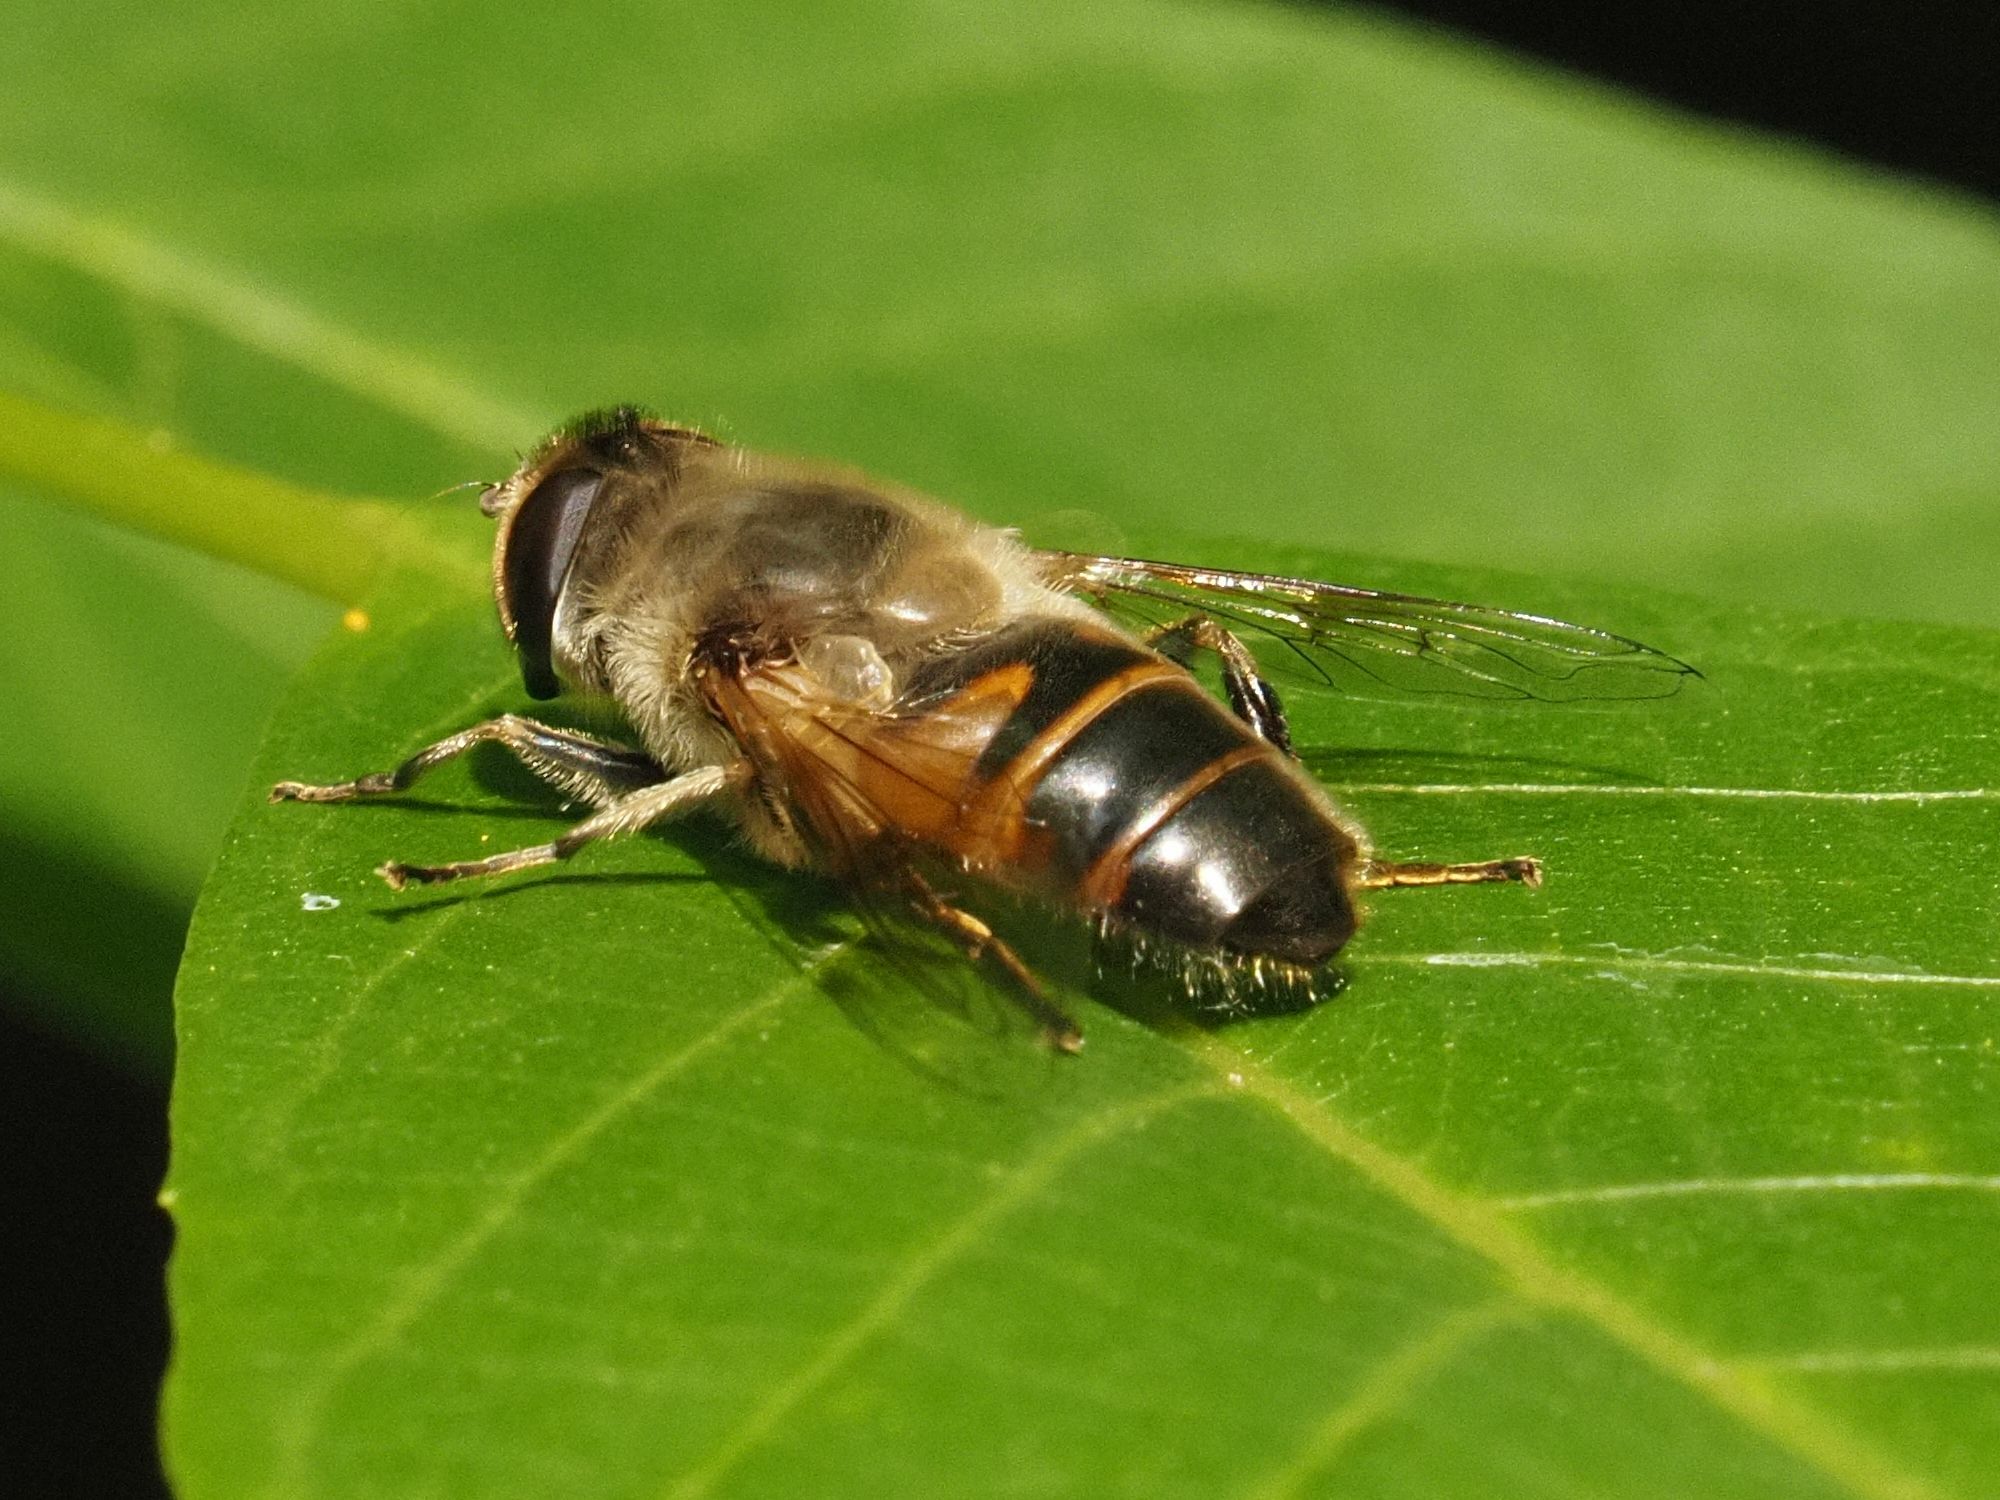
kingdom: Animalia
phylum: Arthropoda
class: Insecta
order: Diptera
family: Syrphidae
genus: Eristalis
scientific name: Eristalis tenax
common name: Drone fly
